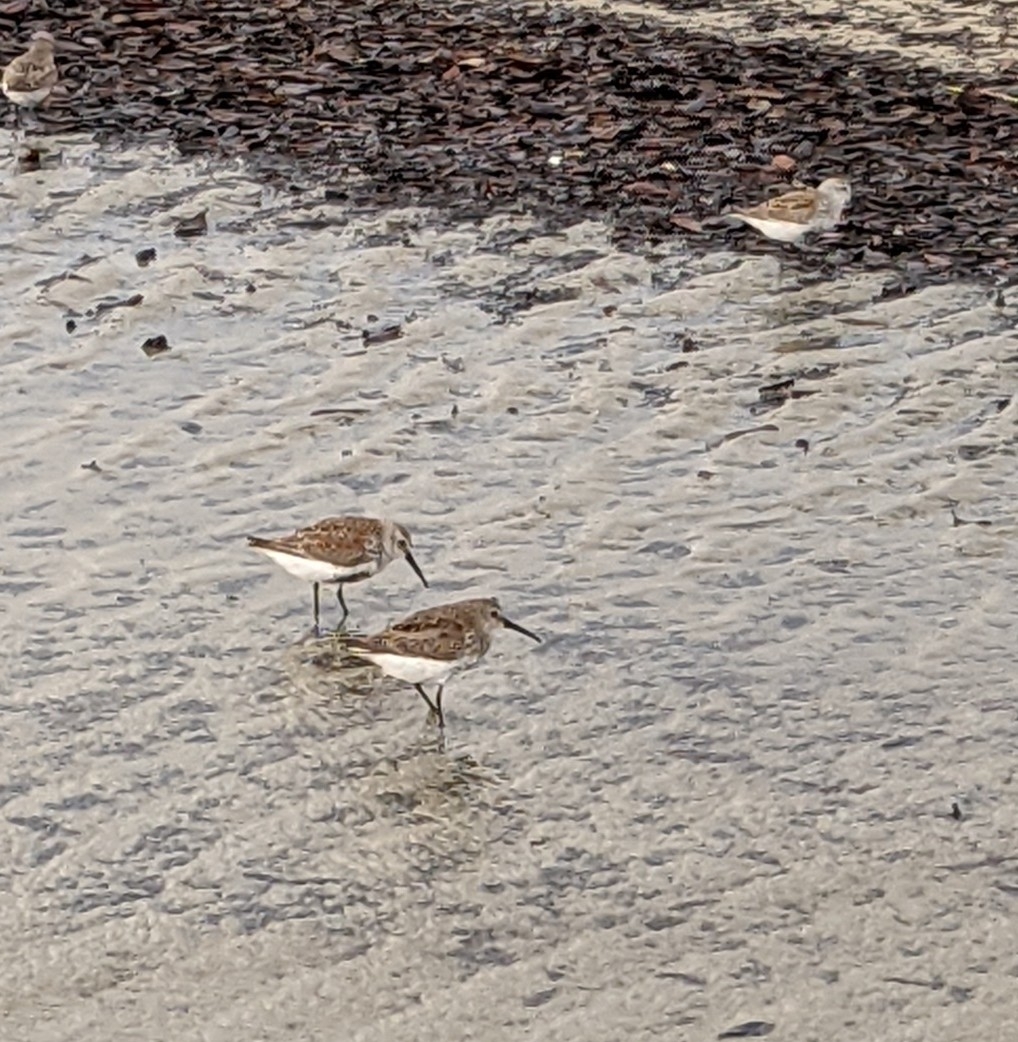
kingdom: Animalia
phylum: Chordata
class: Aves
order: Charadriiformes
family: Scolopacidae
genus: Calidris
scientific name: Calidris alpina
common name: Dunlin
